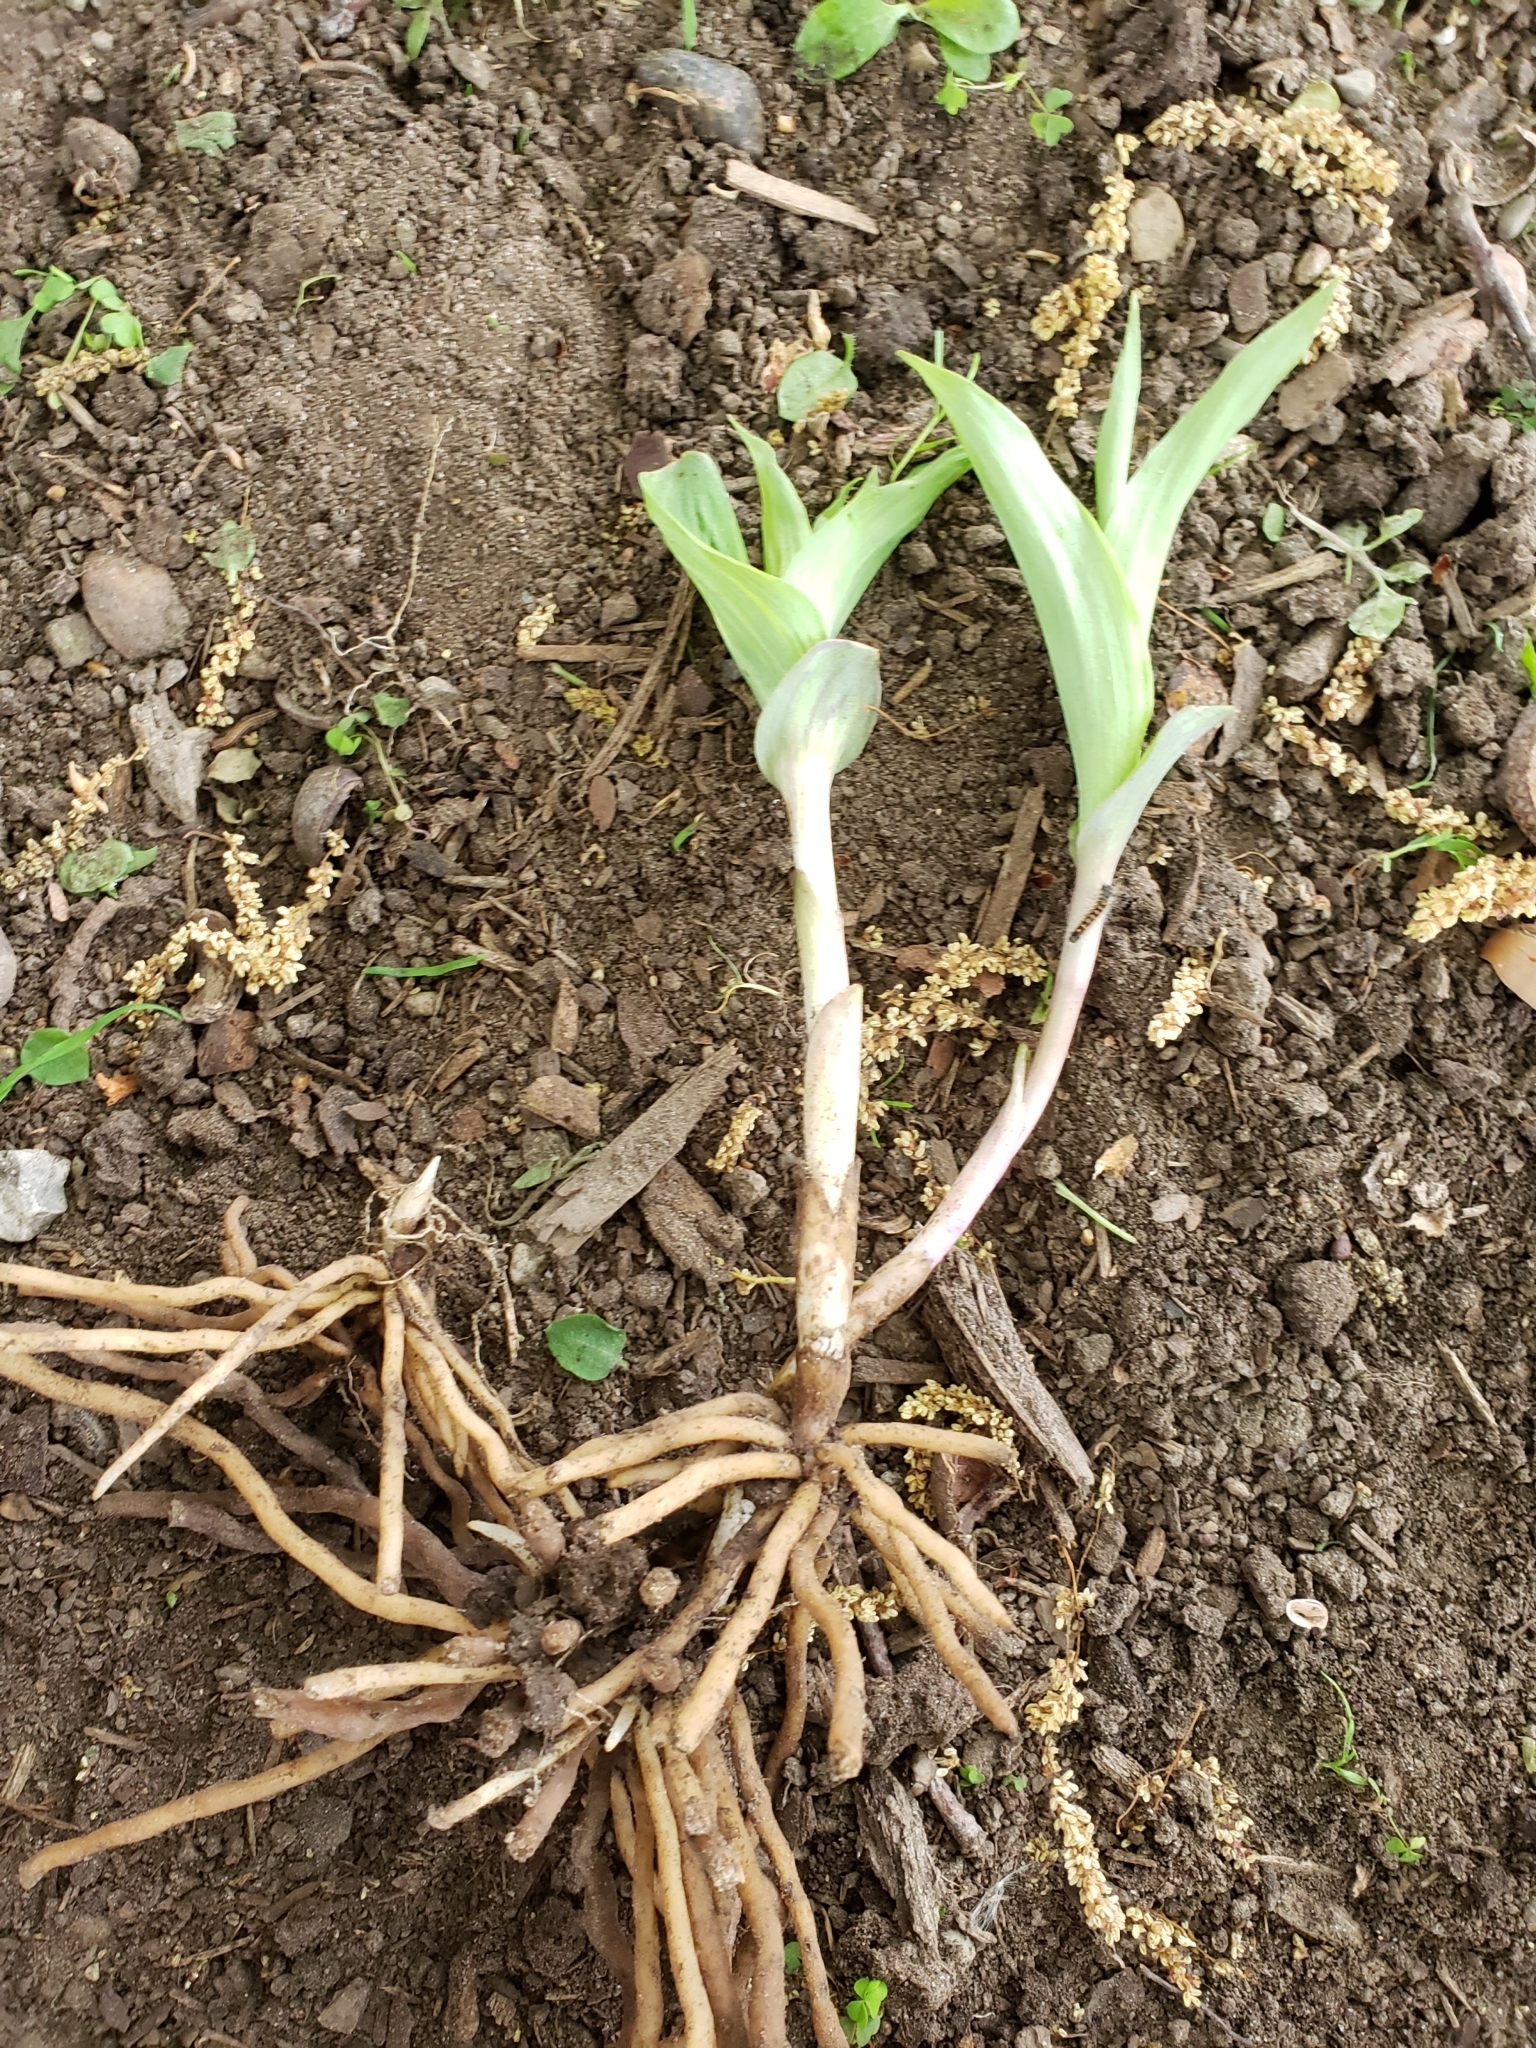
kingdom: Plantae
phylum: Tracheophyta
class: Liliopsida
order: Asparagales
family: Orchidaceae
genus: Epipactis
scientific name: Epipactis helleborine
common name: Broad-leaved helleborine
